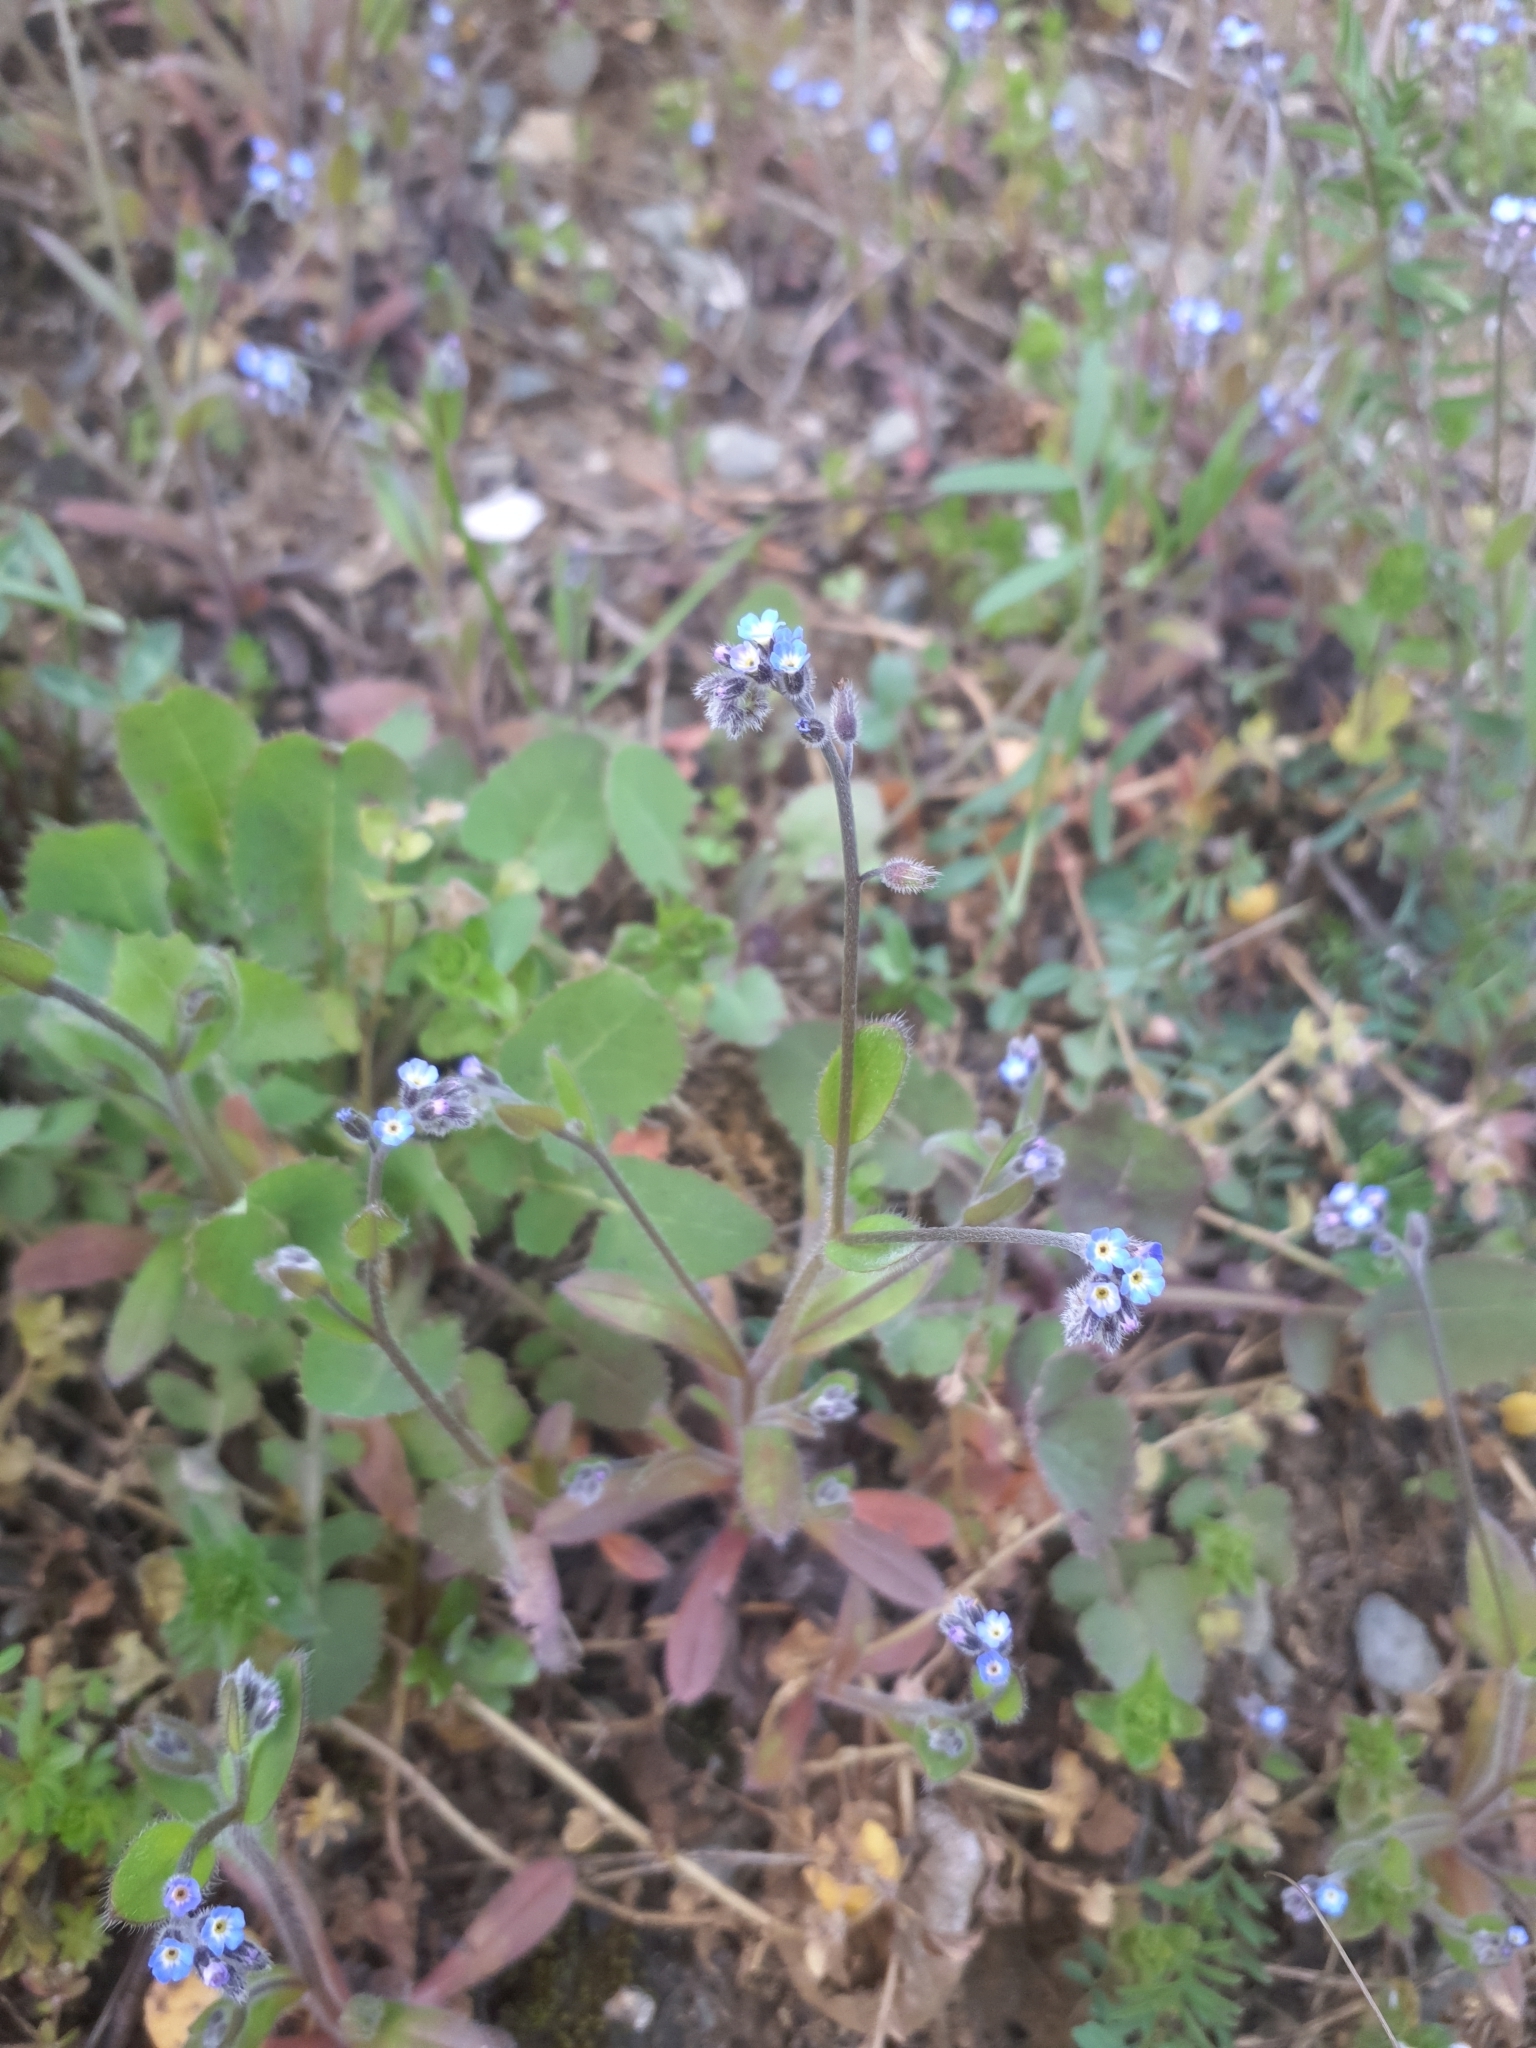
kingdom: Plantae
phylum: Tracheophyta
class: Magnoliopsida
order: Boraginales
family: Boraginaceae
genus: Myosotis
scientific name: Myosotis ramosissima
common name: Early forget-me-not
